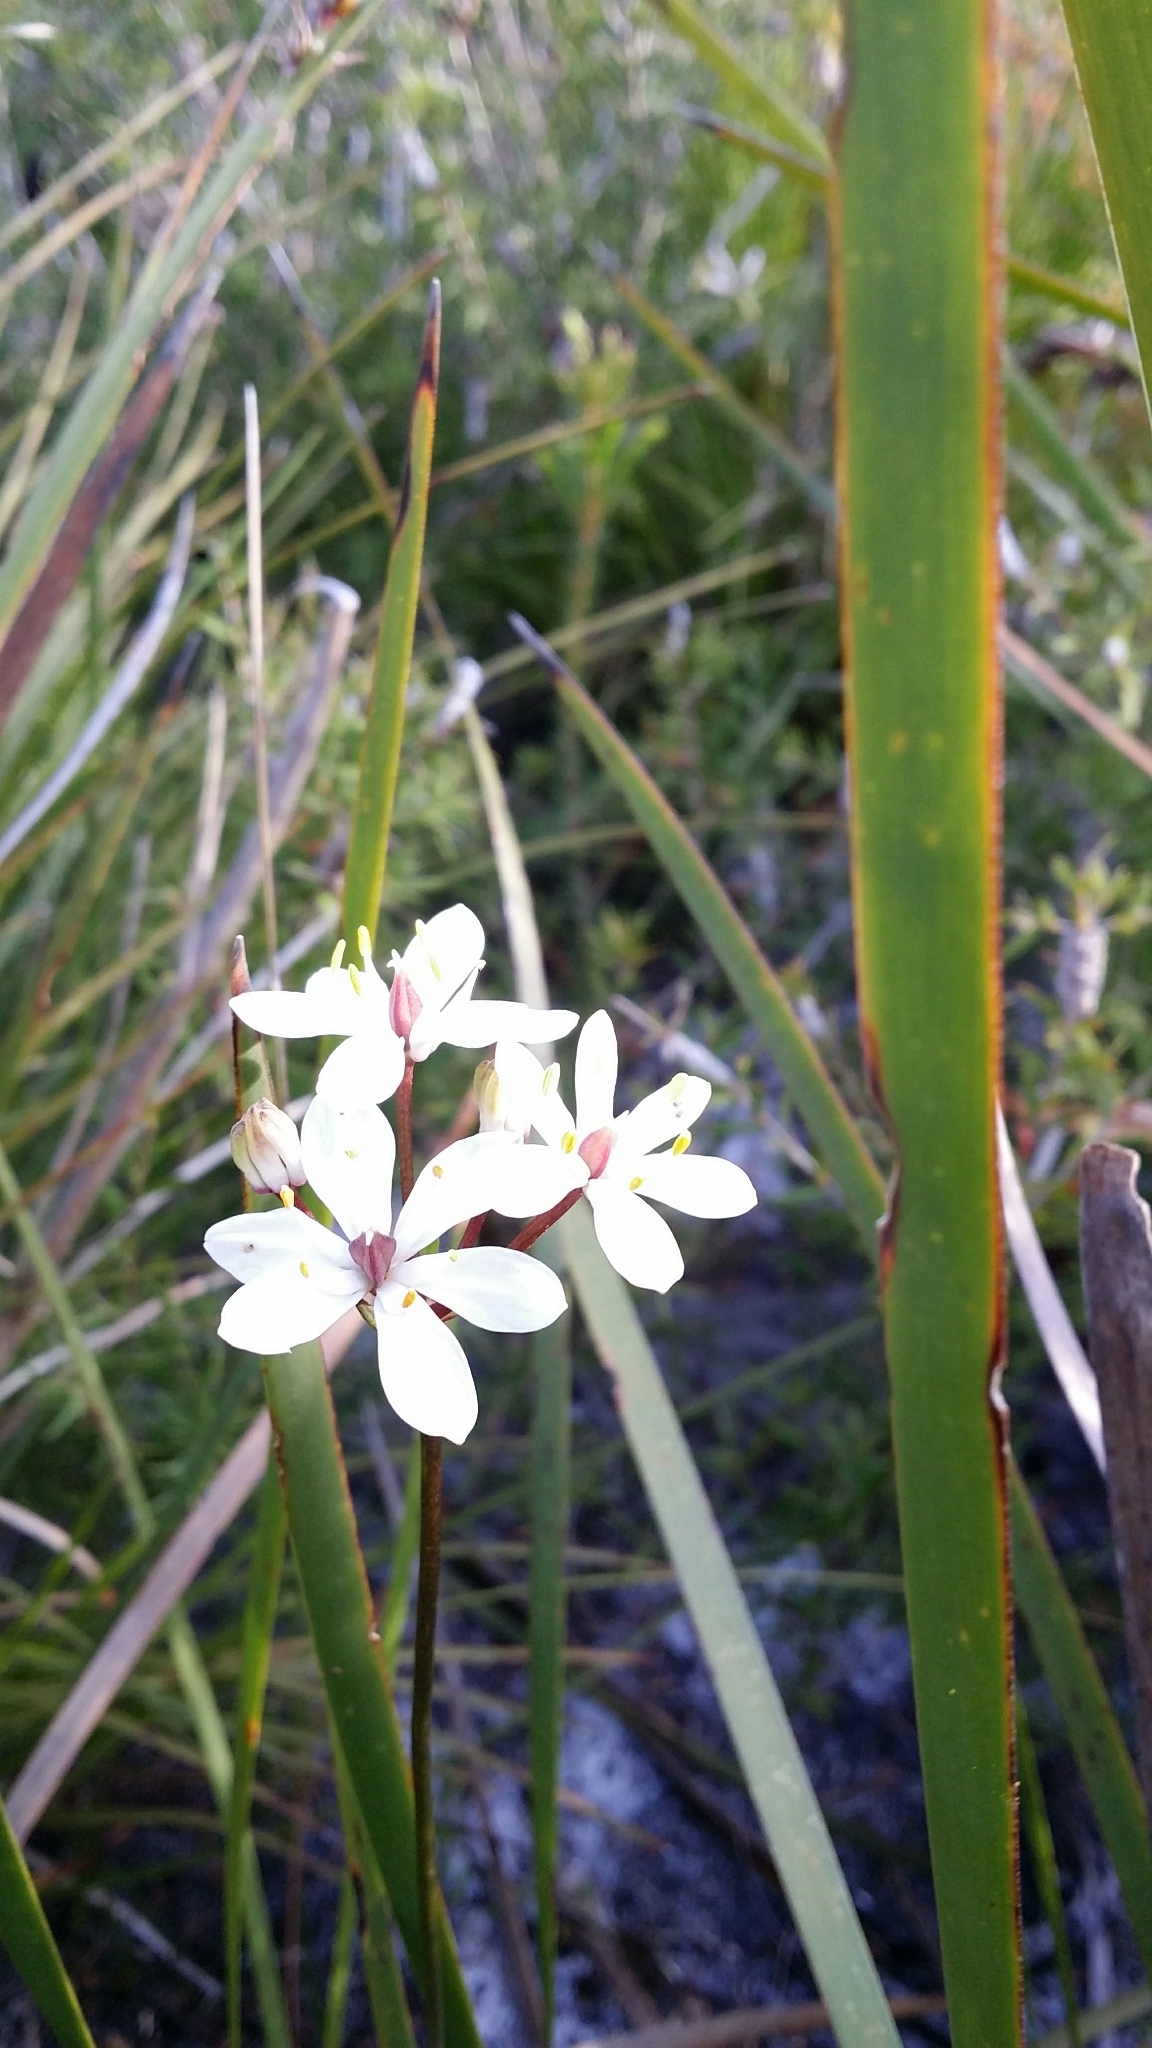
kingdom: Plantae
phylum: Tracheophyta
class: Liliopsida
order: Liliales
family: Colchicaceae
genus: Burchardia
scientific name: Burchardia congesta
